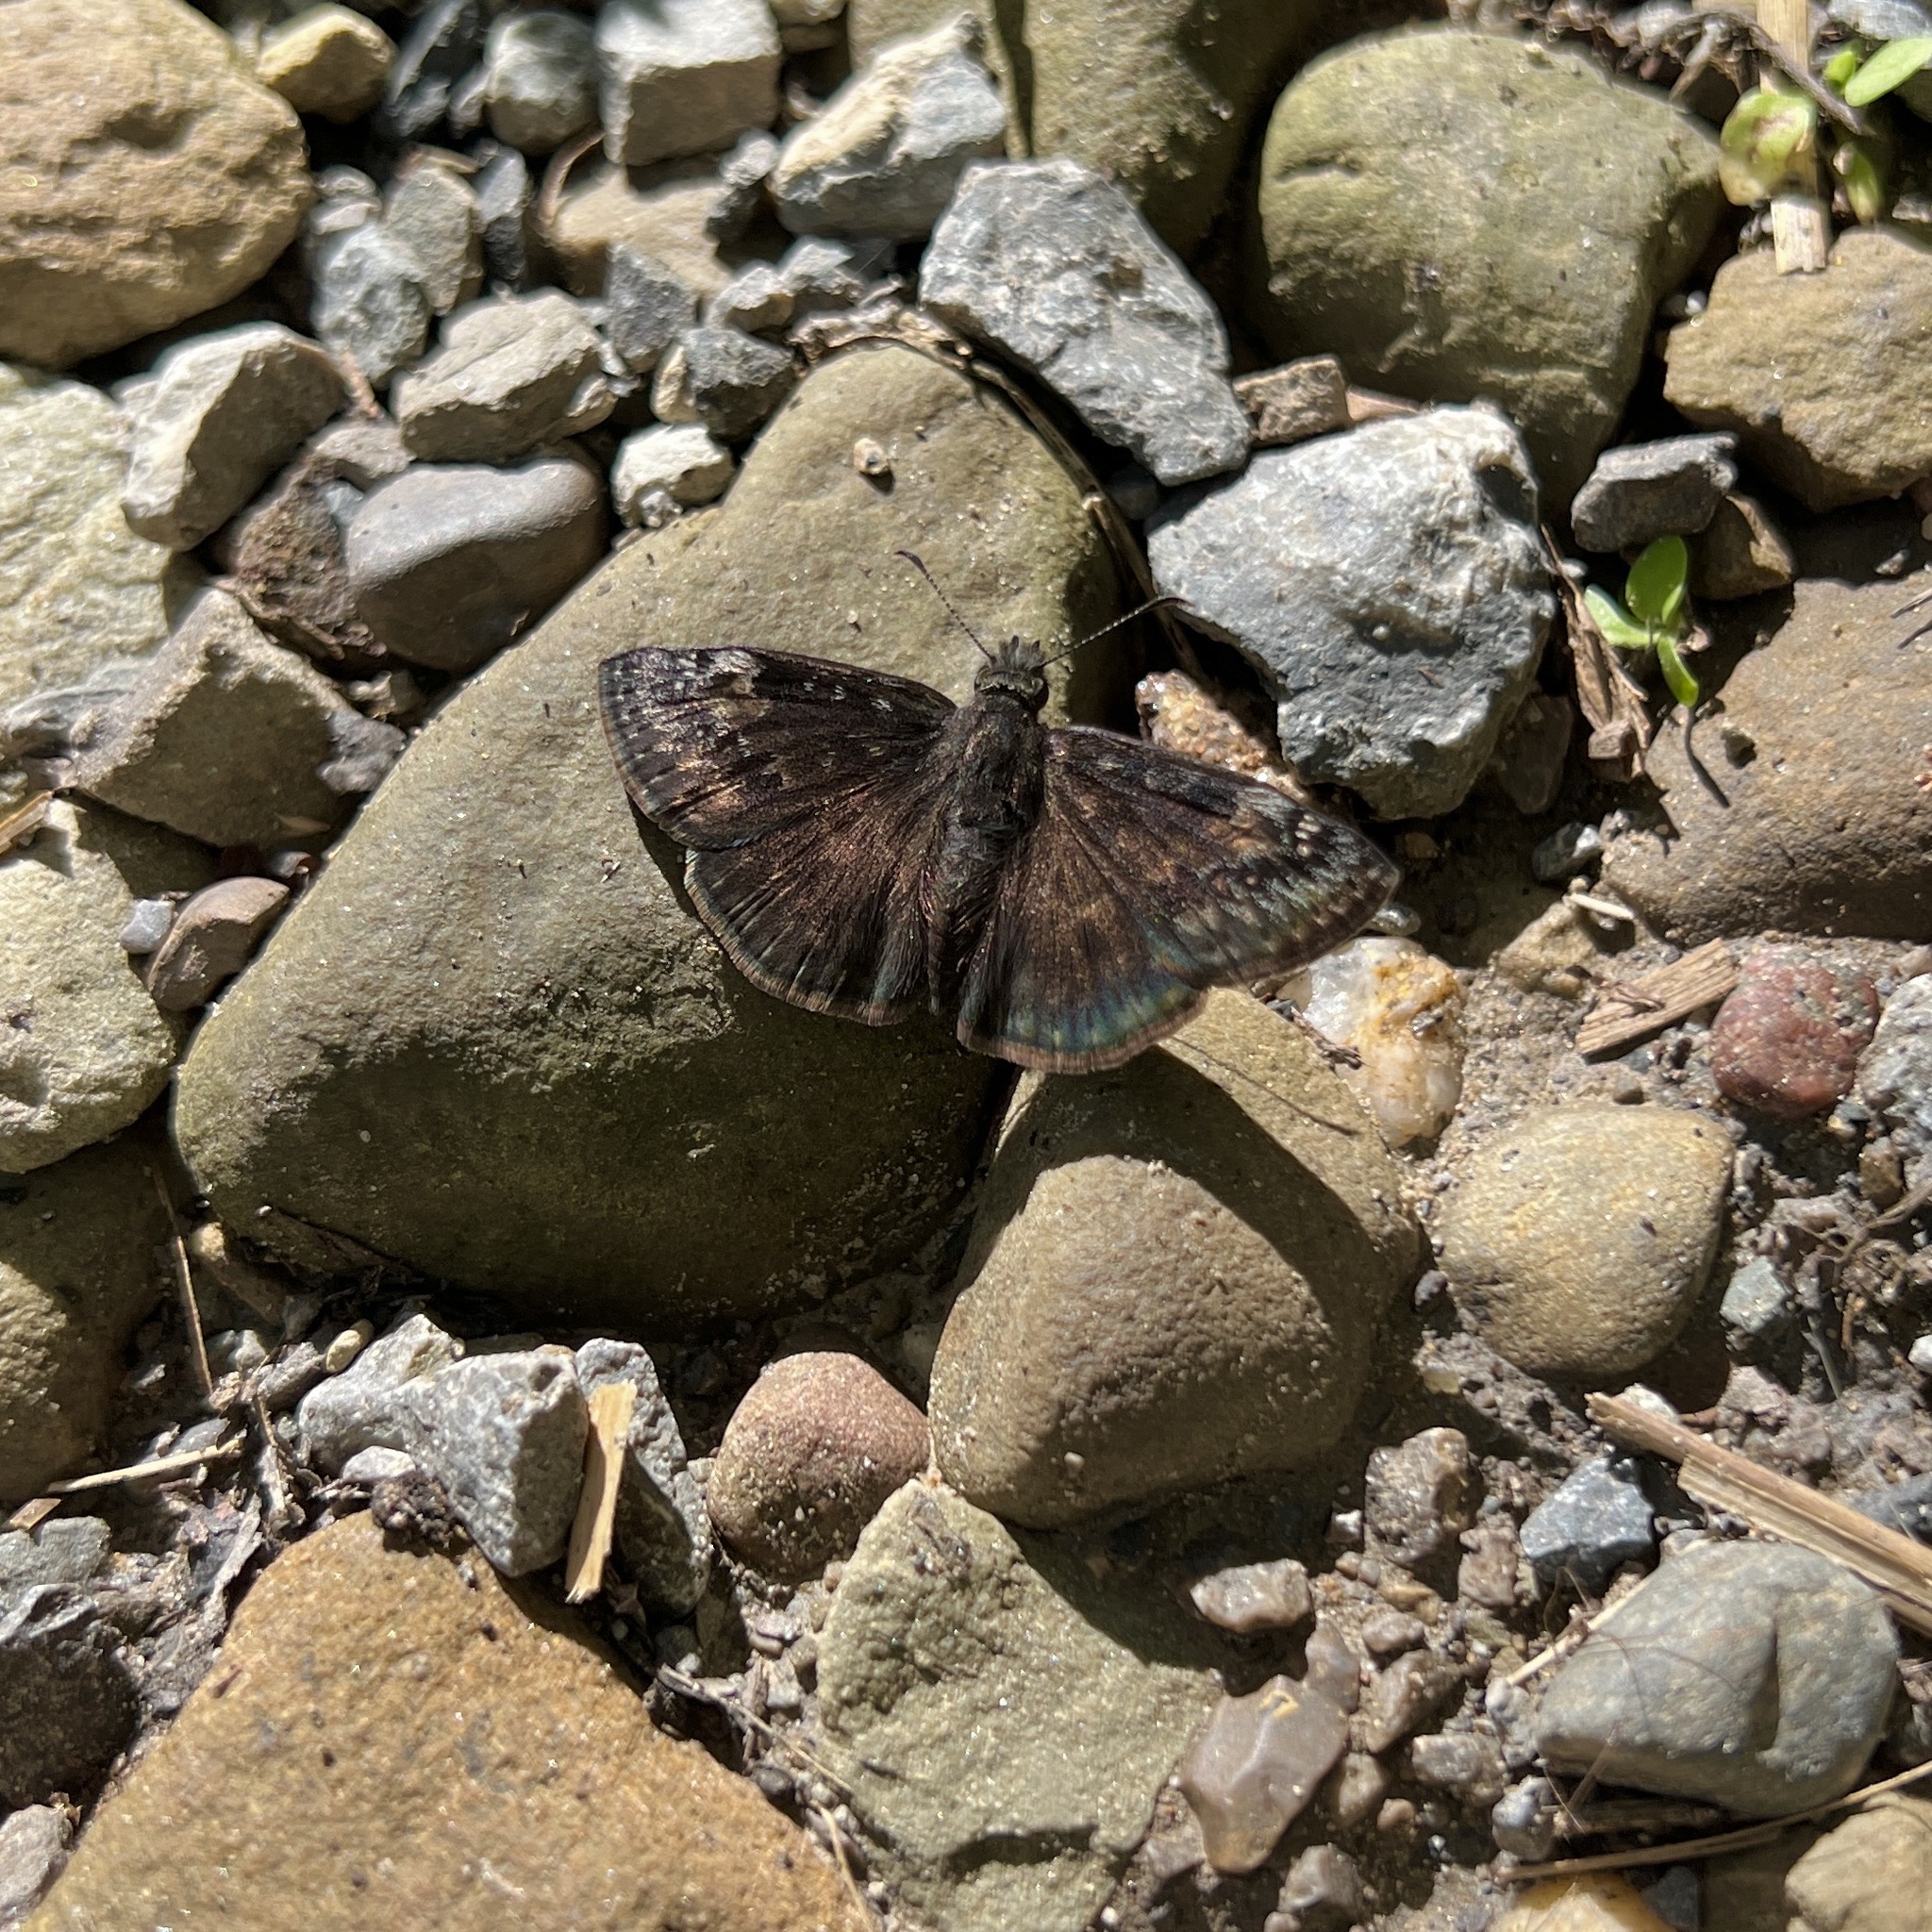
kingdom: Animalia
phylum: Arthropoda
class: Insecta
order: Lepidoptera
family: Hesperiidae
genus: Erynnis
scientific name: Erynnis baptisiae
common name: Wild indigo duskywing
